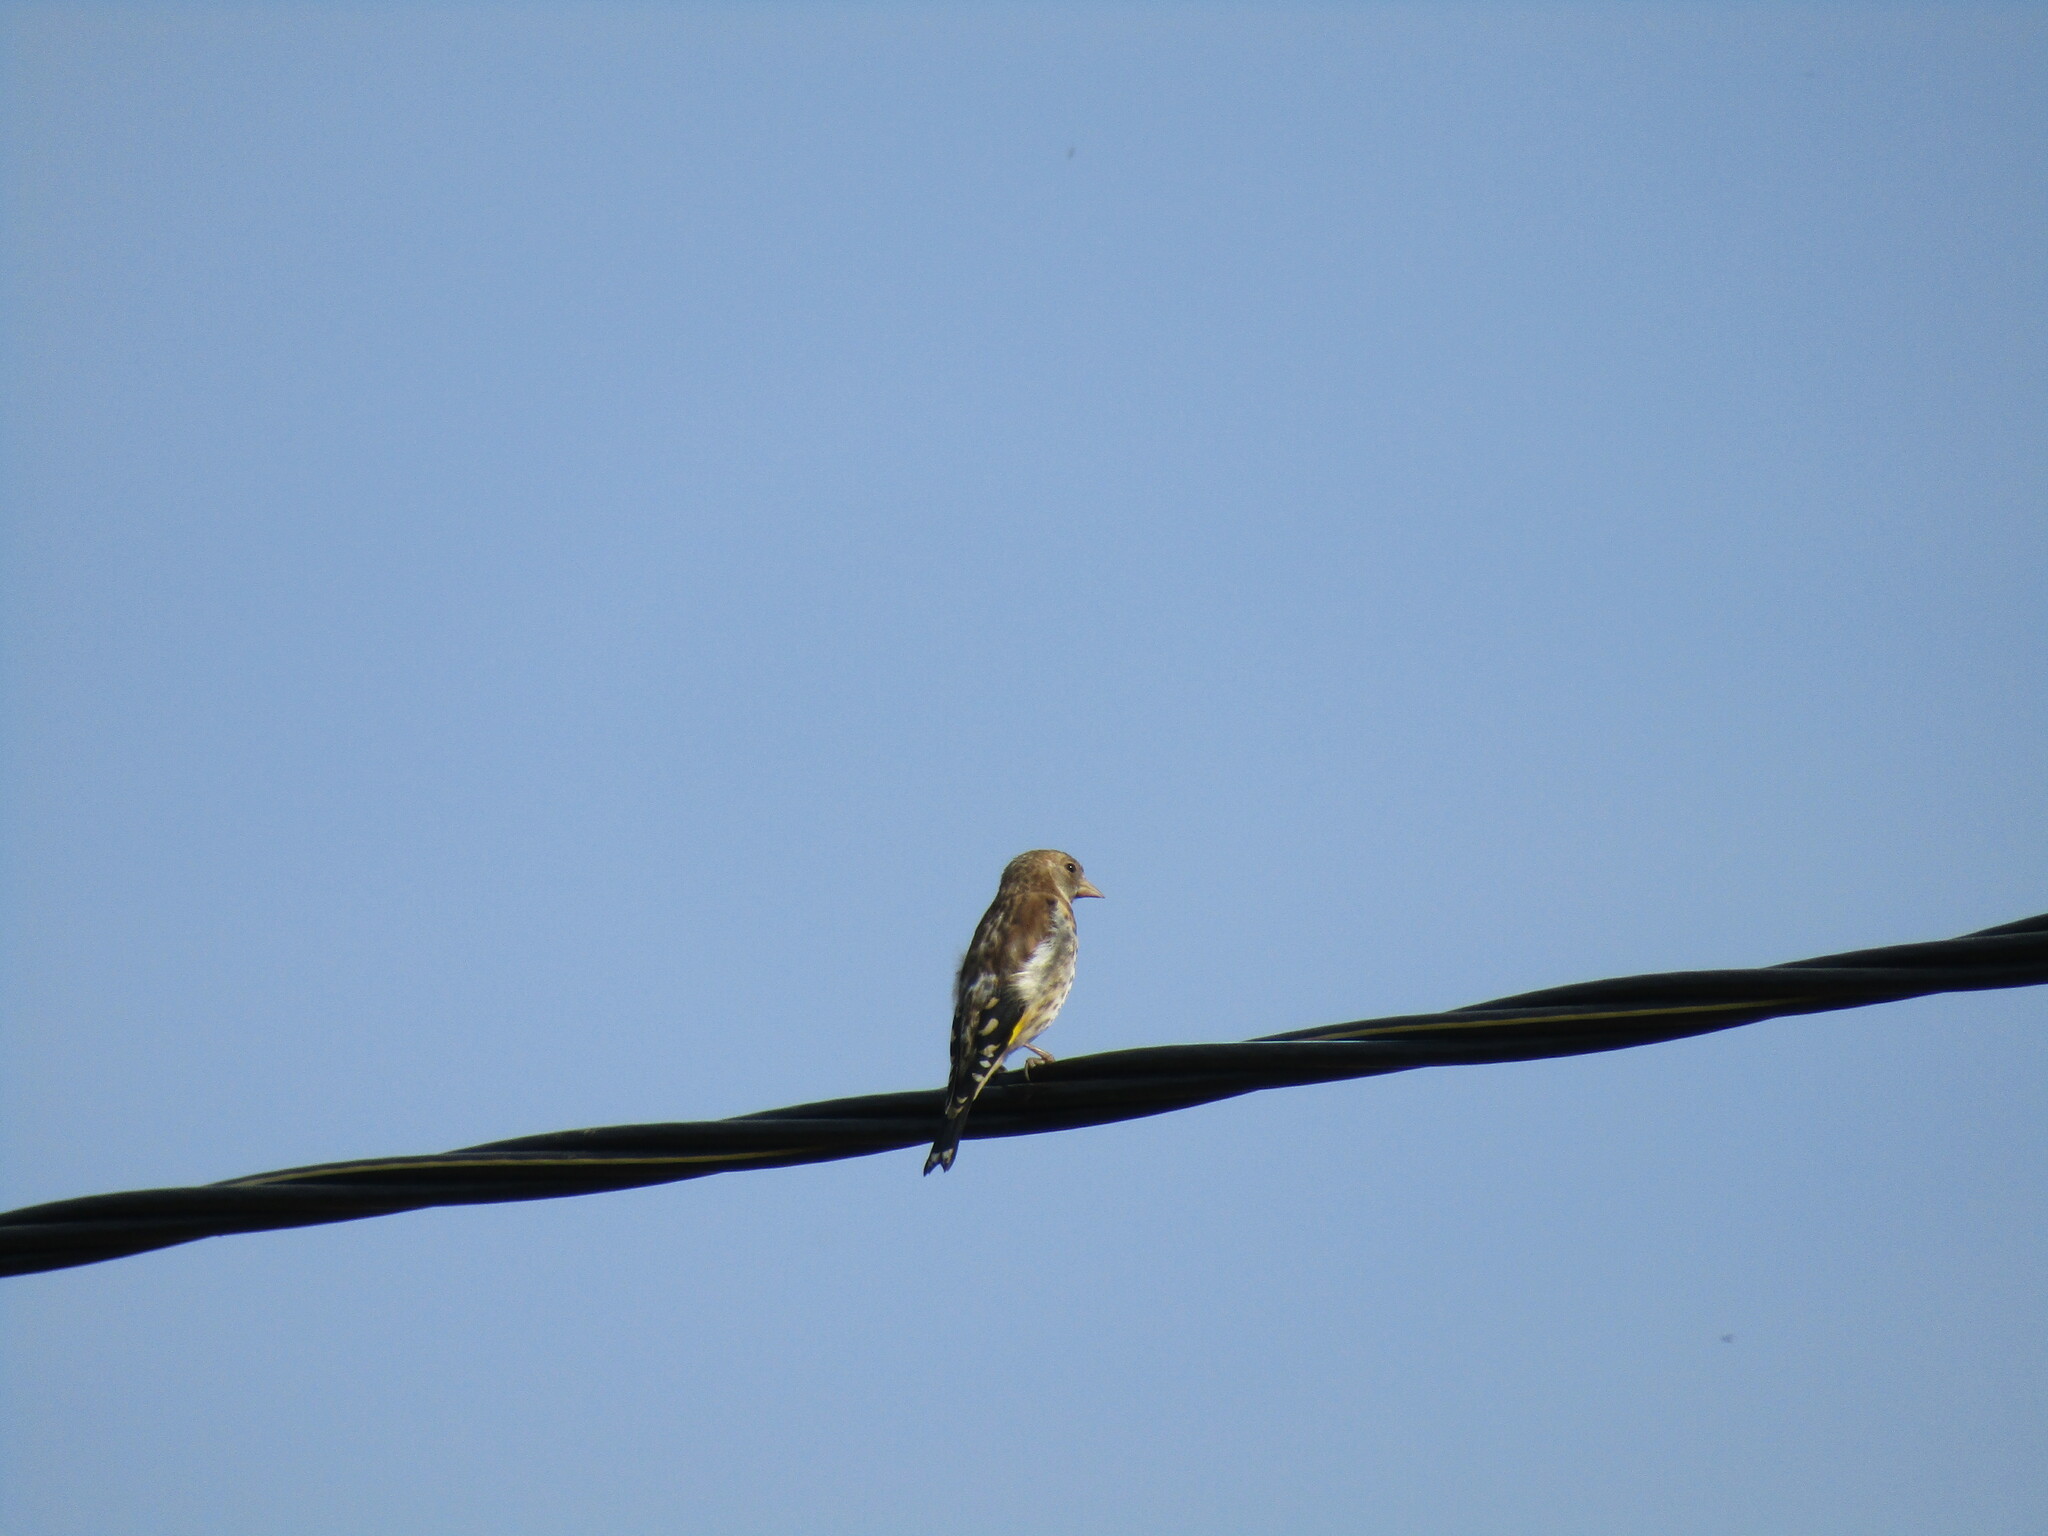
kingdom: Animalia
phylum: Chordata
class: Aves
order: Passeriformes
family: Fringillidae
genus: Carduelis
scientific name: Carduelis carduelis
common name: European goldfinch
